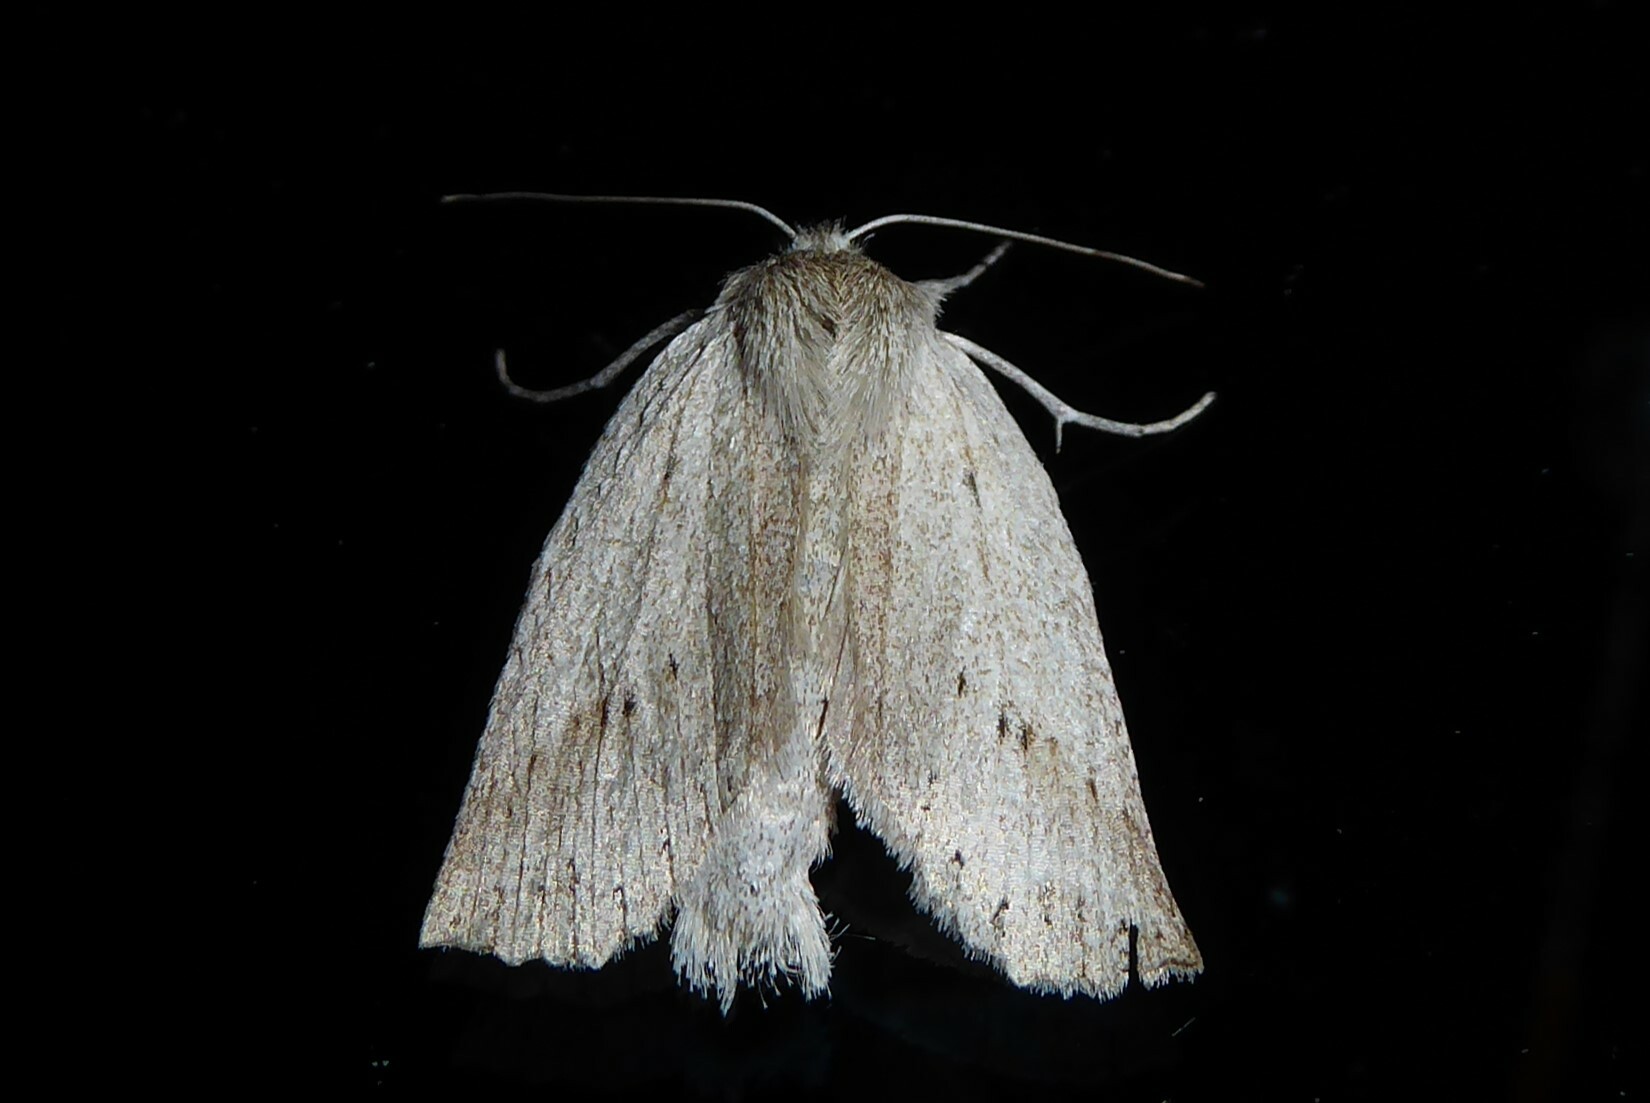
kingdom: Animalia
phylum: Arthropoda
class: Insecta
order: Lepidoptera
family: Geometridae
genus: Declana
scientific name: Declana leptomera
